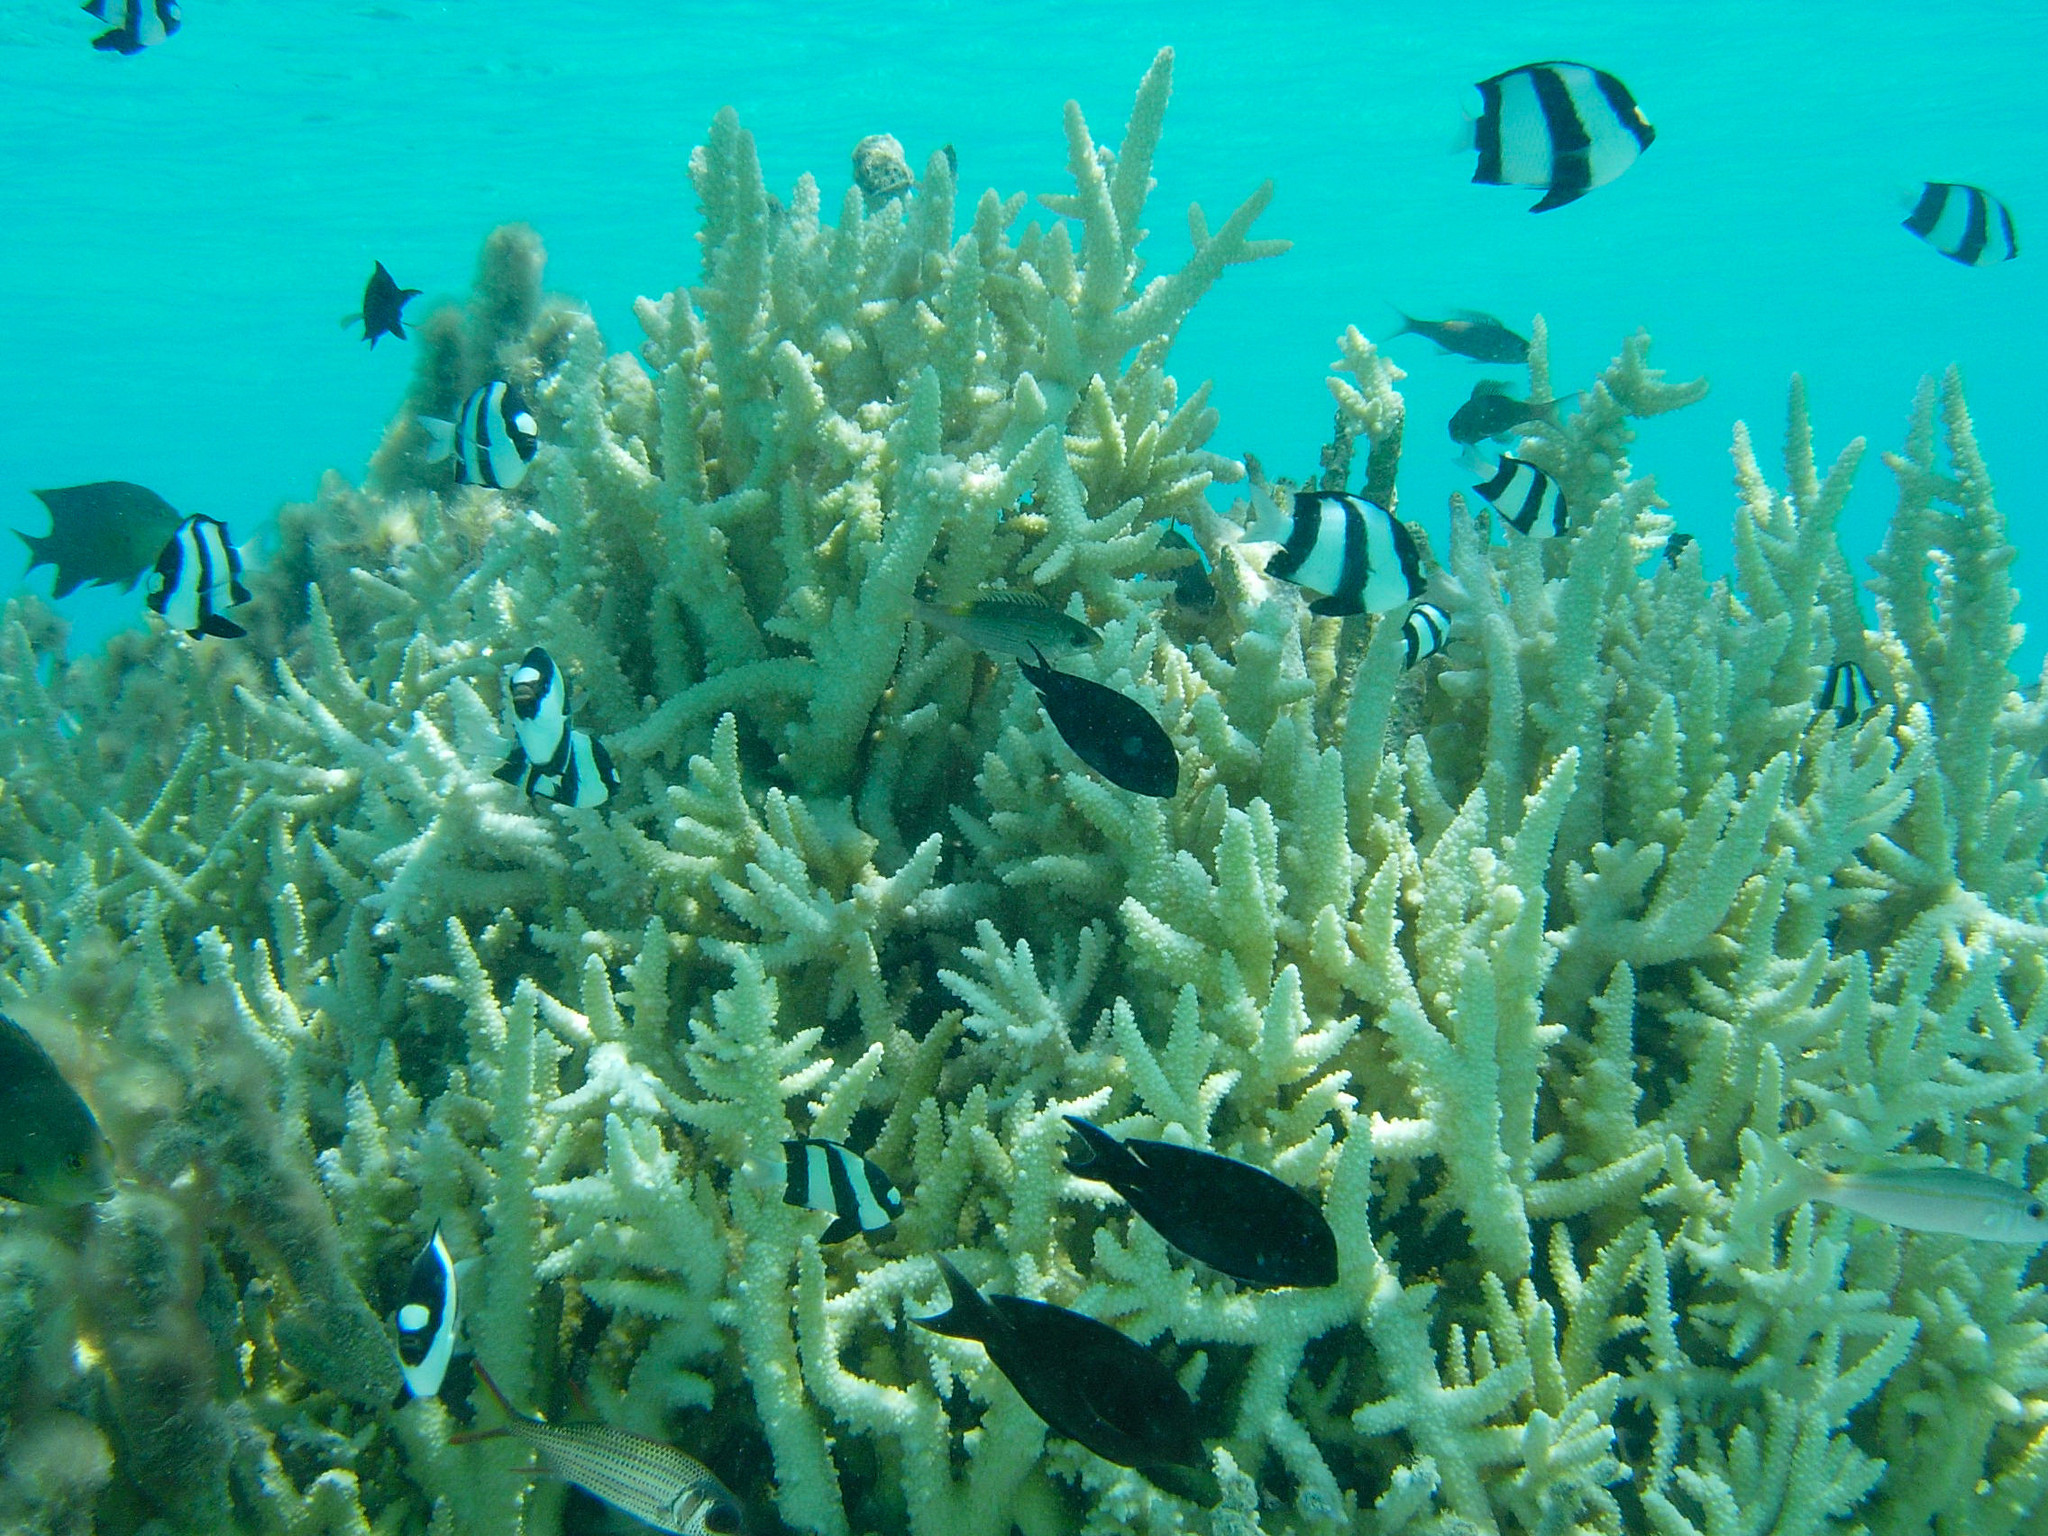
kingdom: Animalia
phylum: Chordata
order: Perciformes
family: Pomacentridae
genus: Dascyllus
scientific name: Dascyllus aruanus
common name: Humbug dascyllus
